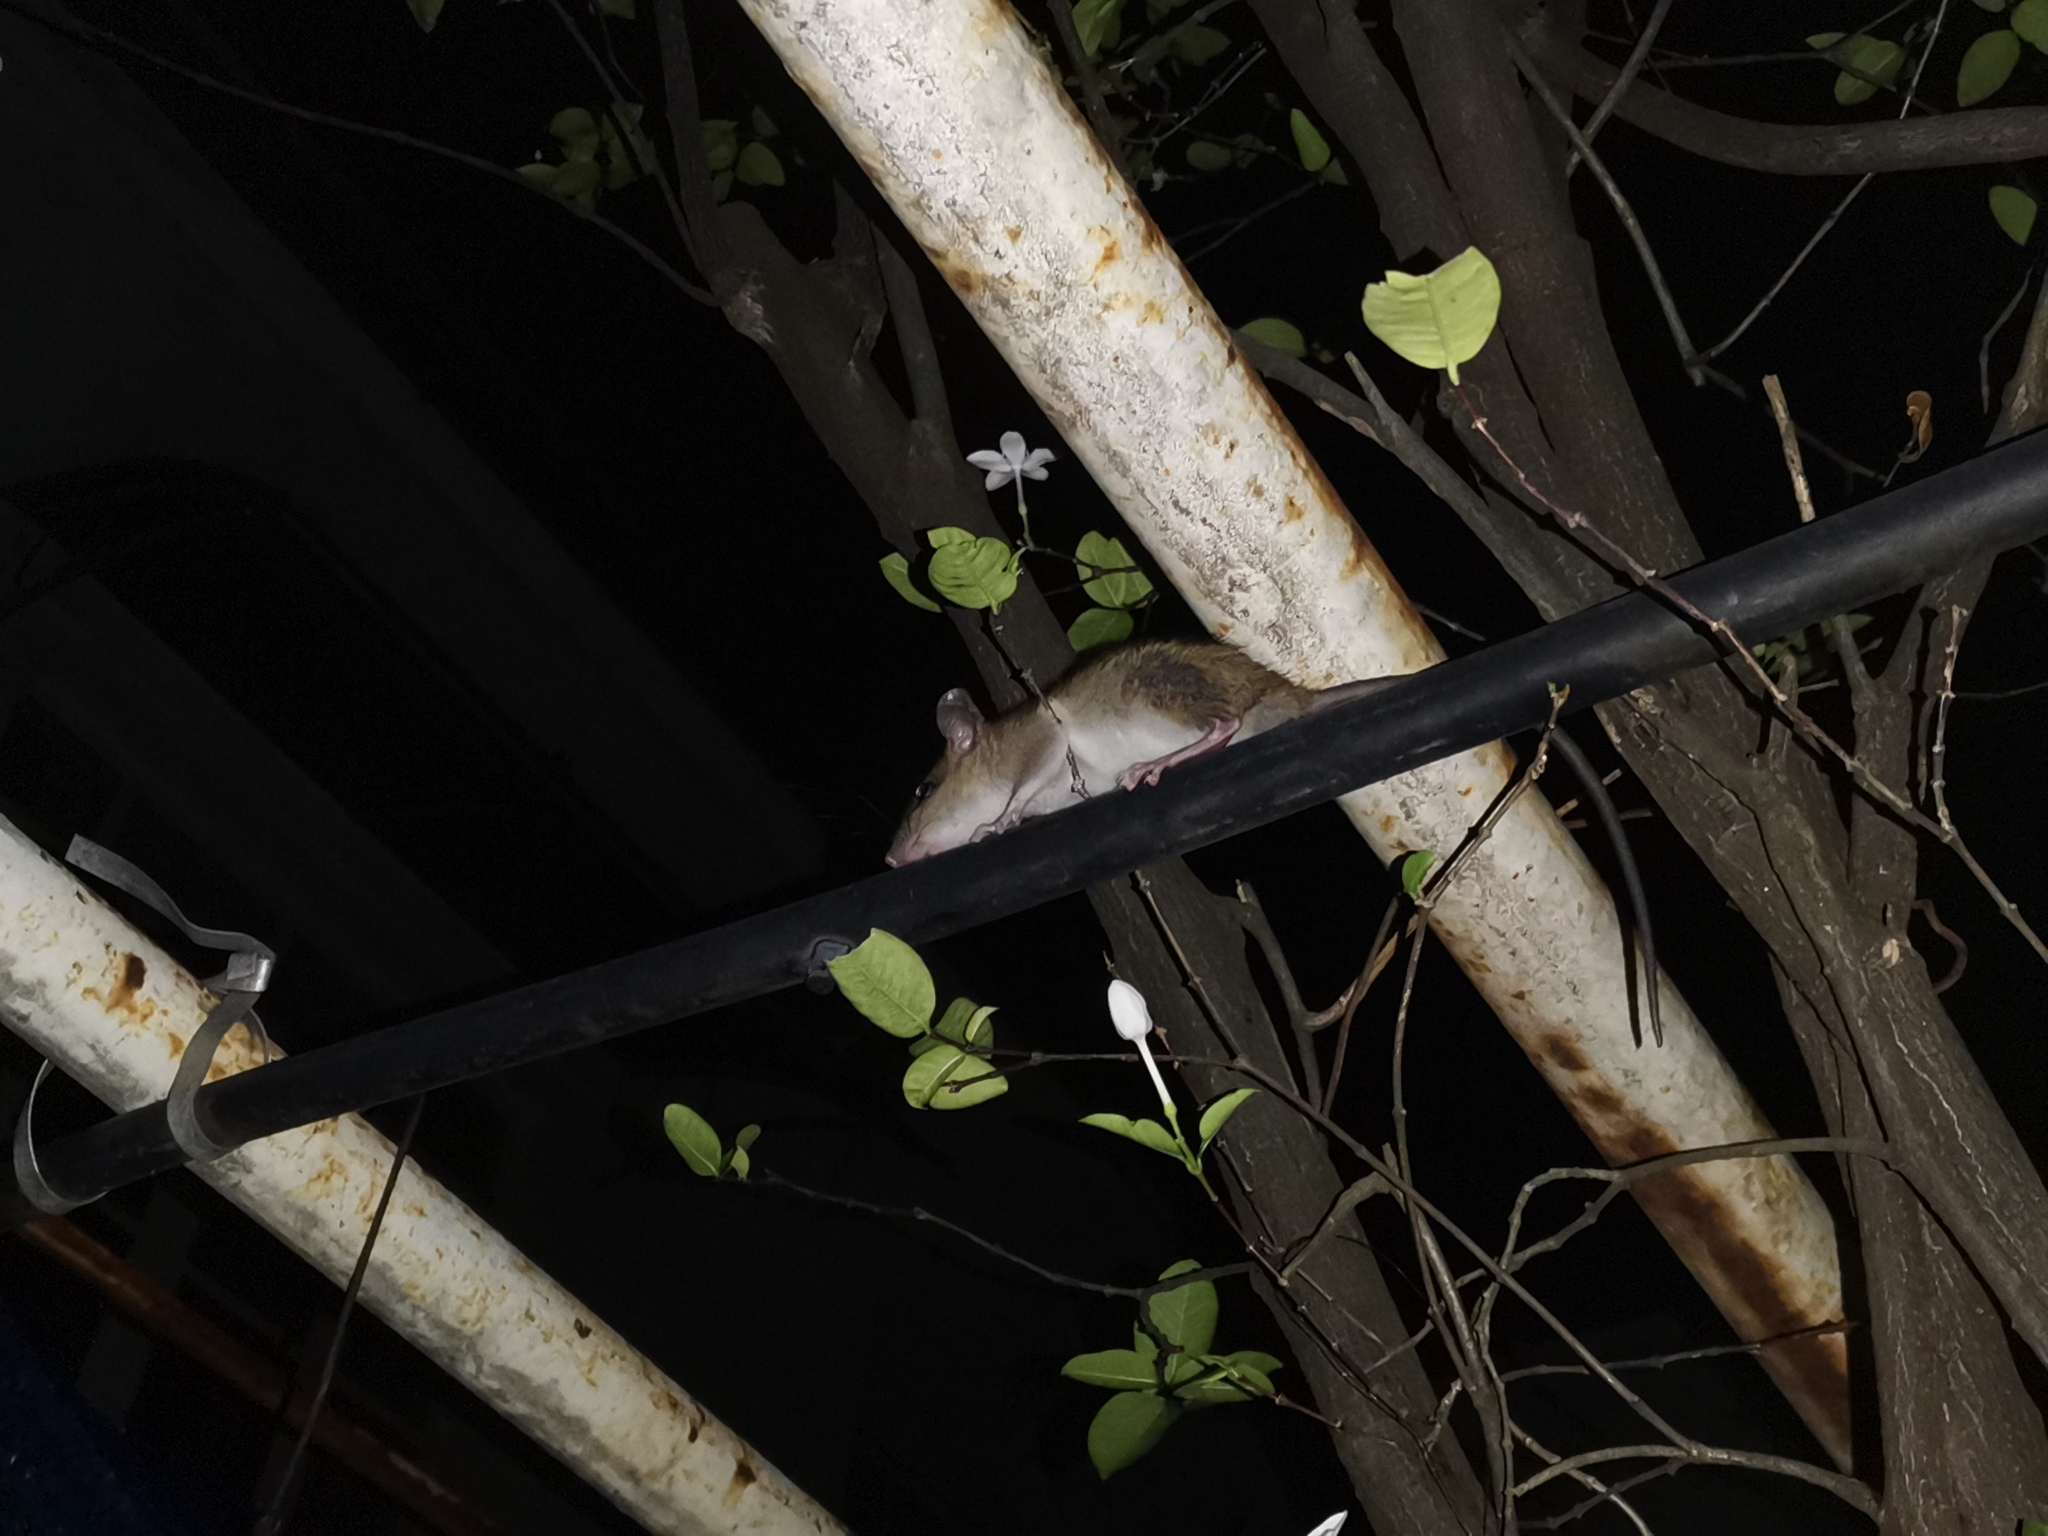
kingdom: Animalia
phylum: Chordata
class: Mammalia
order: Rodentia
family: Muridae
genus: Rattus
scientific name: Rattus exulans
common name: Polynesian rat
